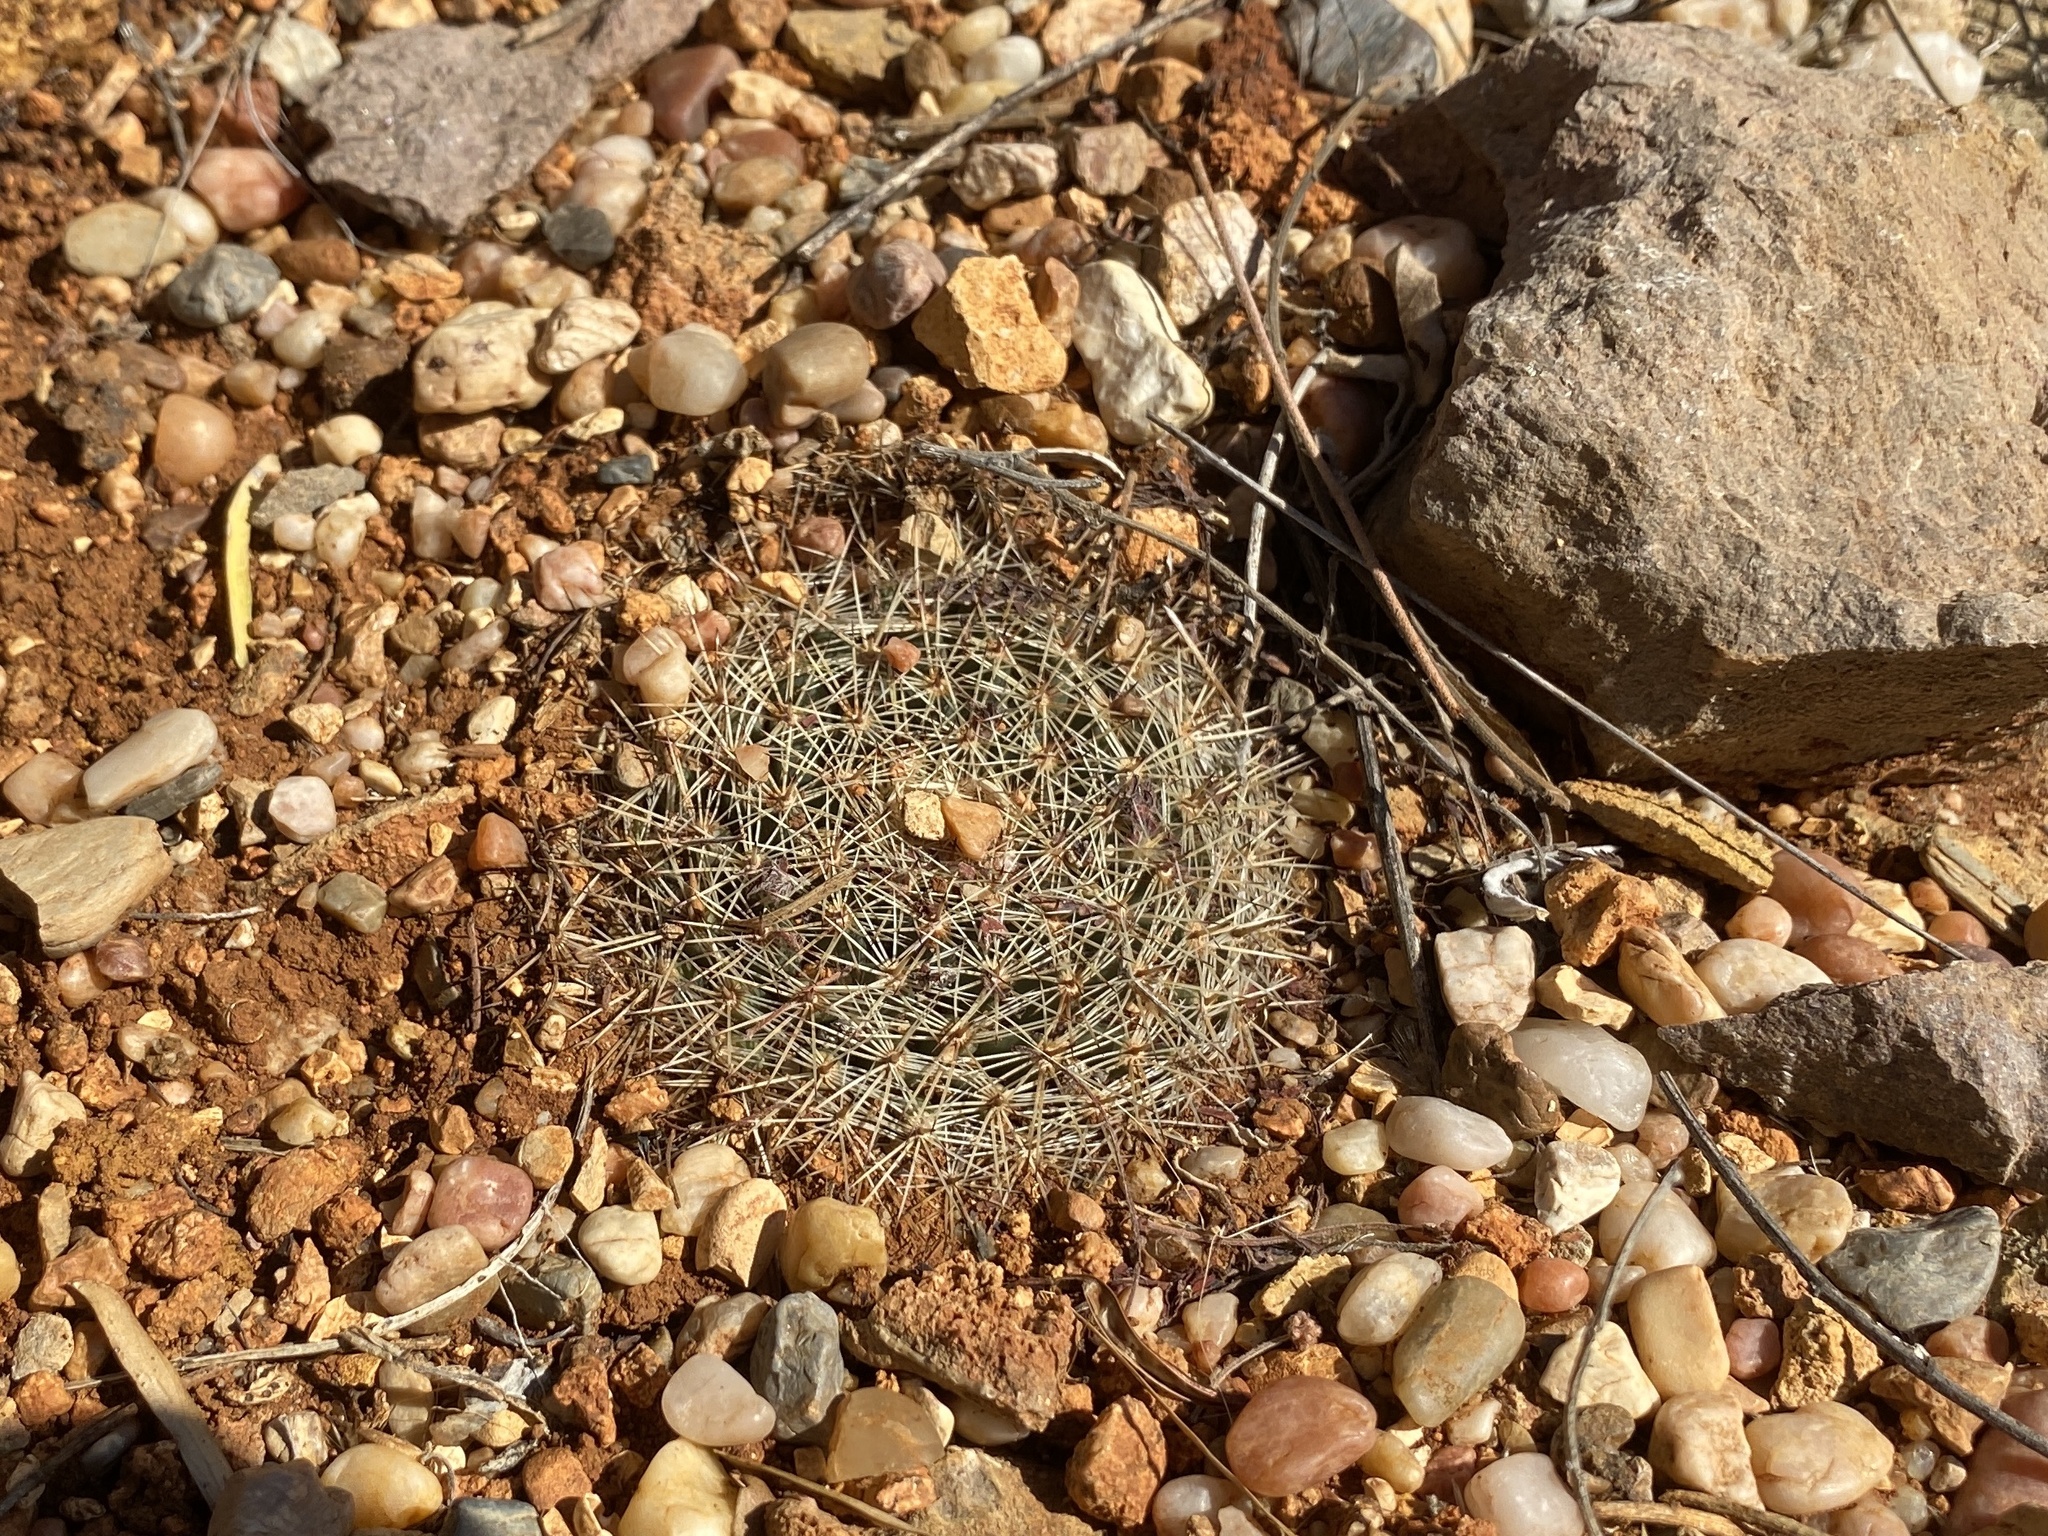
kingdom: Plantae
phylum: Tracheophyta
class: Magnoliopsida
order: Caryophyllales
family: Cactaceae
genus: Mammillaria
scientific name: Mammillaria heyderi
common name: Little nipple cactus
